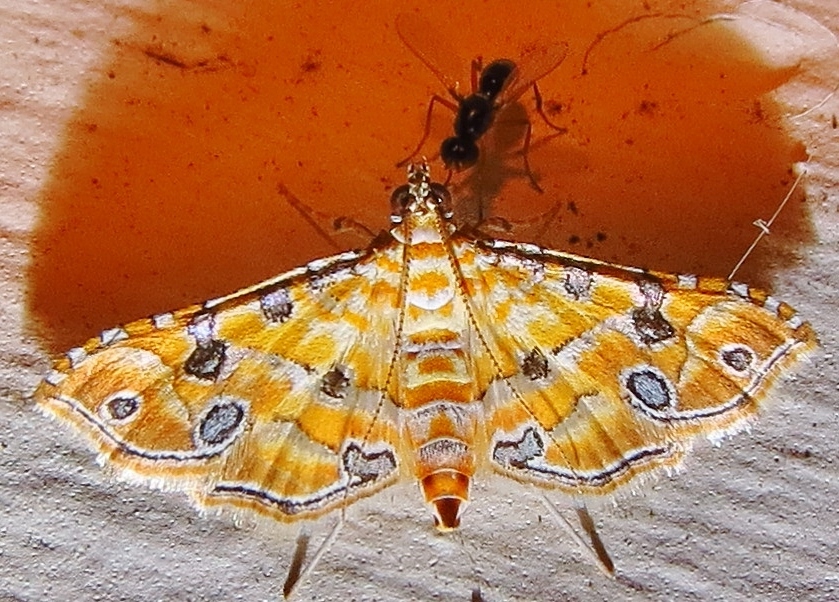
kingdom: Animalia
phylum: Arthropoda
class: Insecta
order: Lepidoptera
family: Crambidae
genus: Ommatospila
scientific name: Ommatospila narcaeusalis
